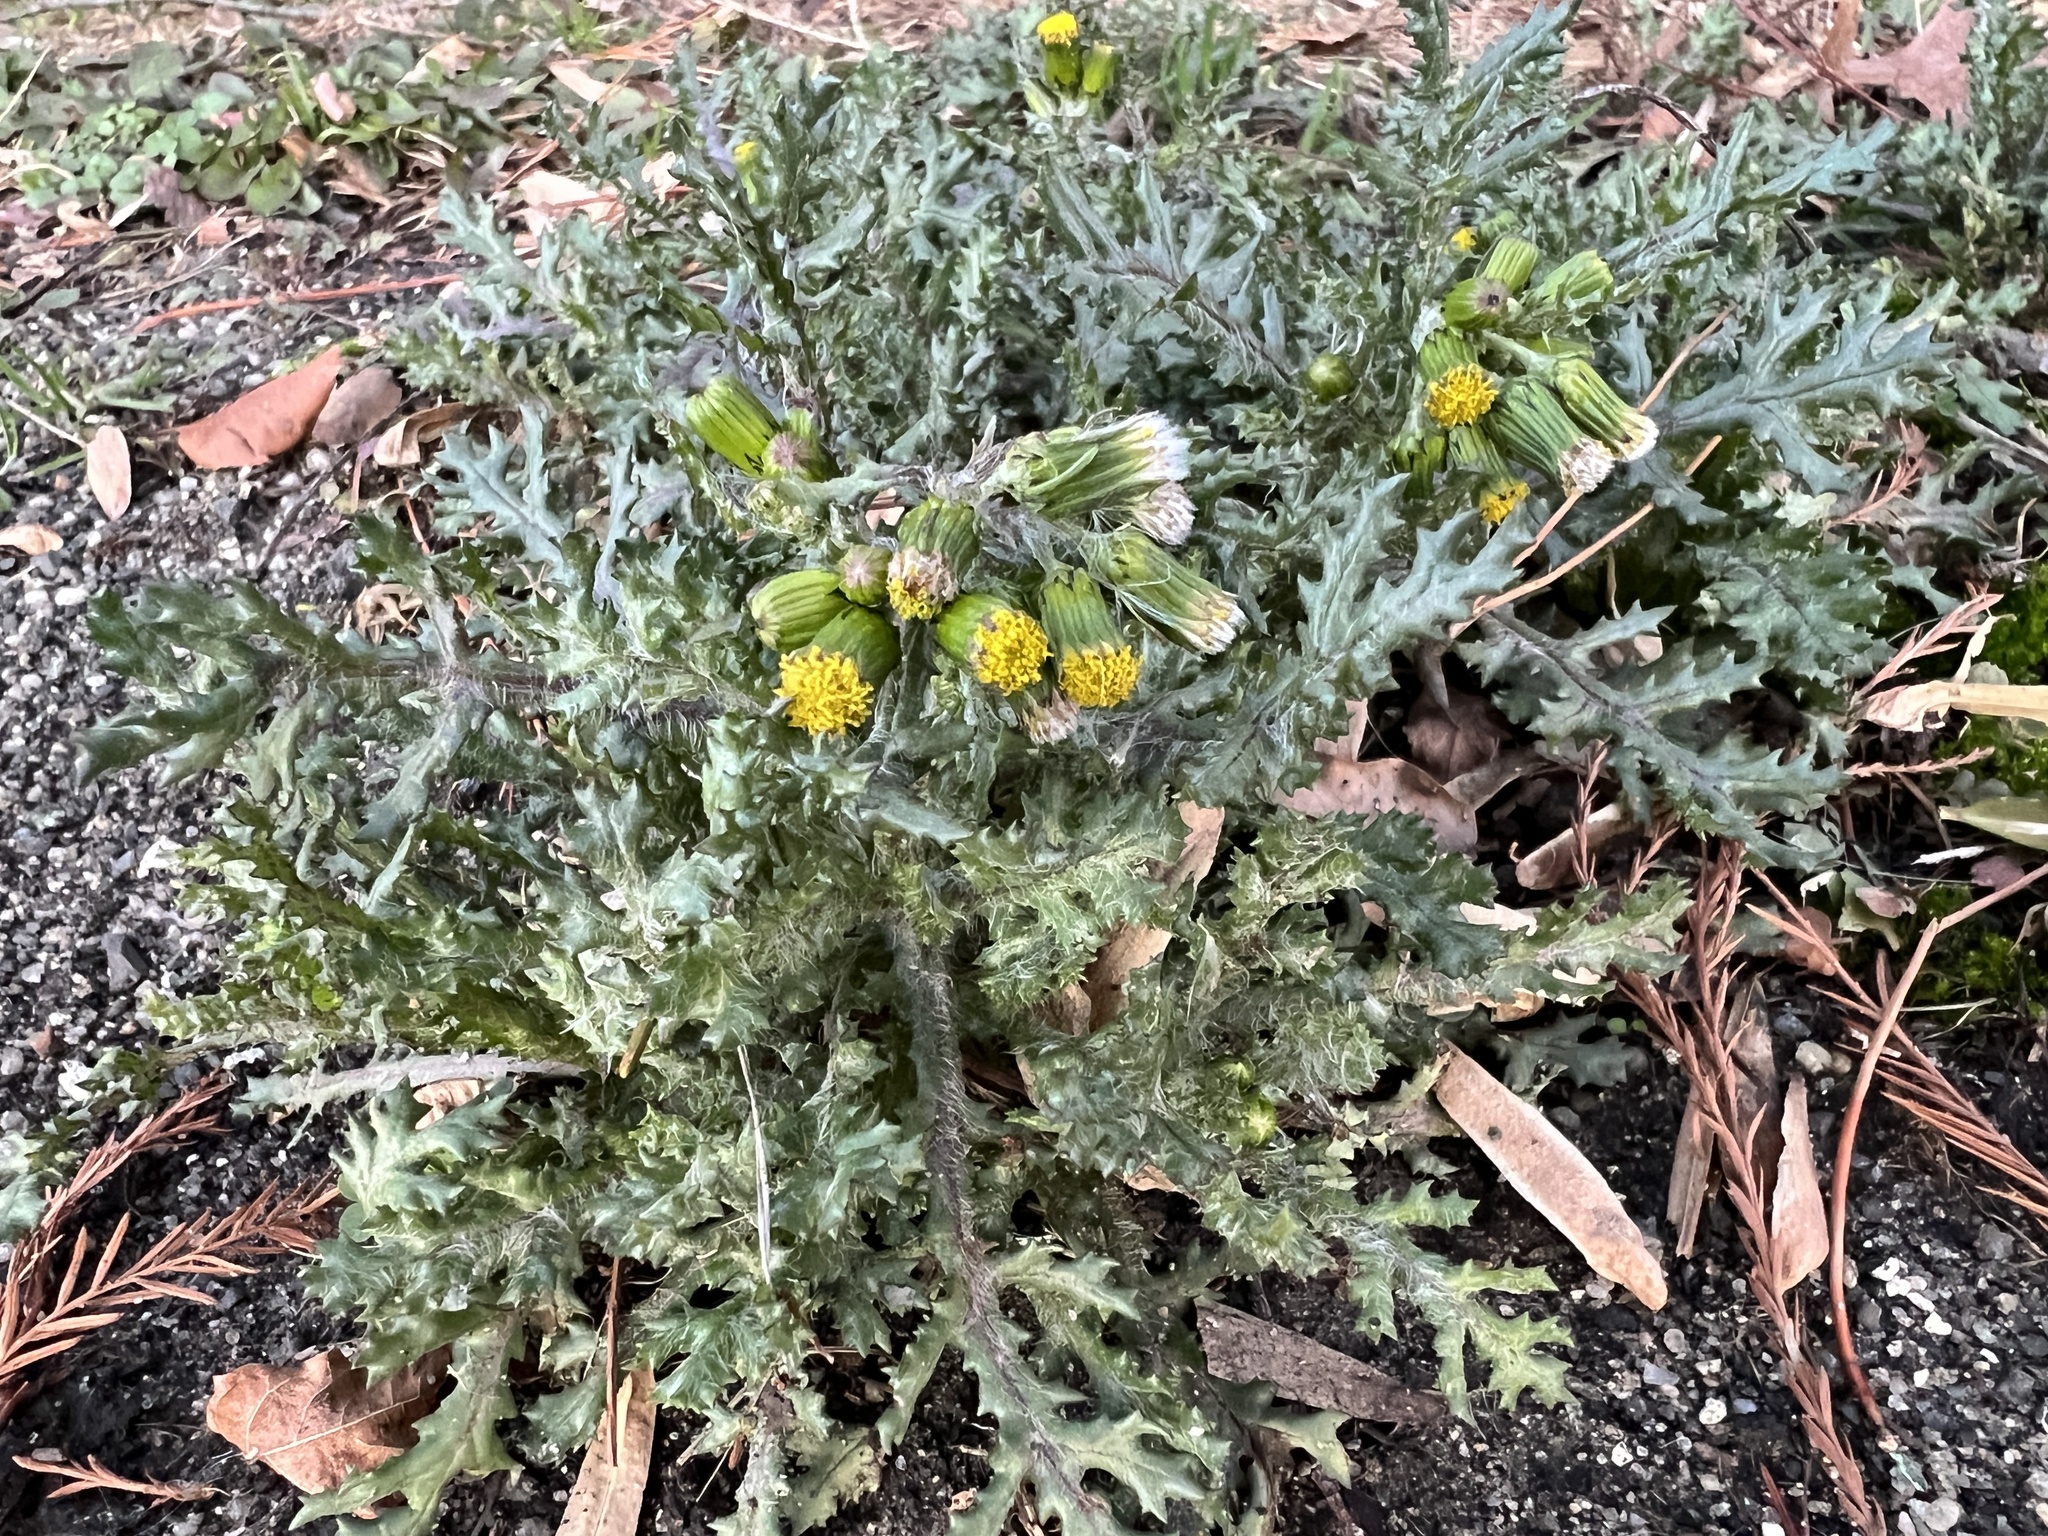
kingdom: Plantae
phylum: Tracheophyta
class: Magnoliopsida
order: Asterales
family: Asteraceae
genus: Senecio
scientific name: Senecio vulgaris
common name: Old-man-in-the-spring
